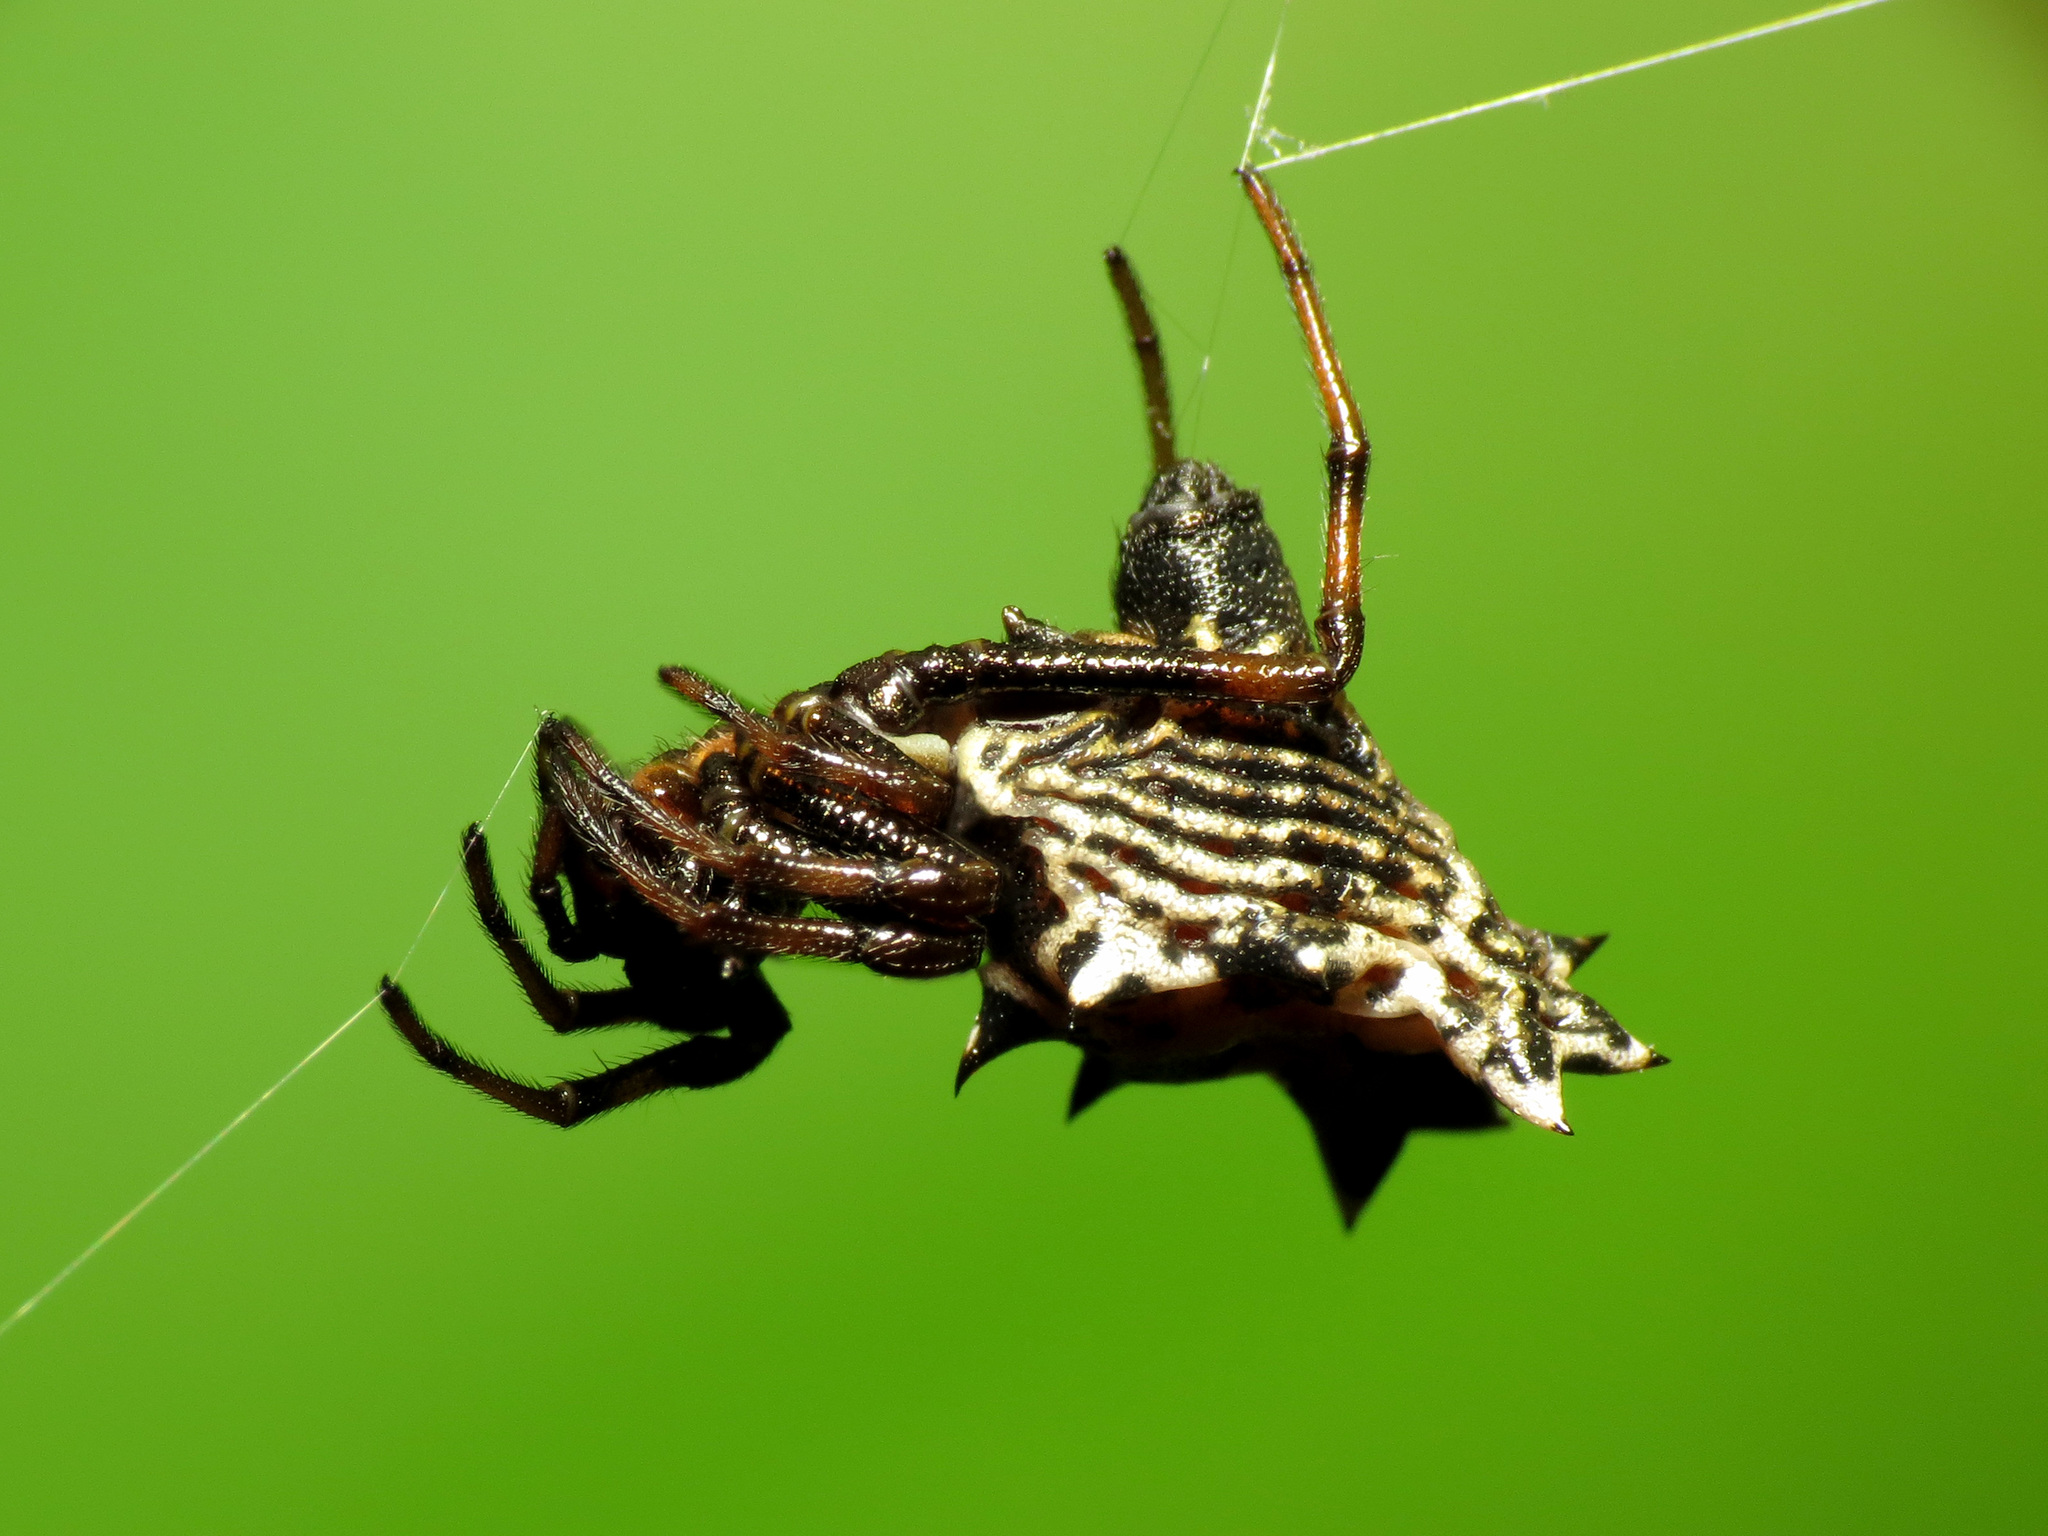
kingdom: Animalia
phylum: Arthropoda
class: Arachnida
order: Araneae
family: Araneidae
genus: Micrathena
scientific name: Micrathena gracilis
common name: Orb weavers
